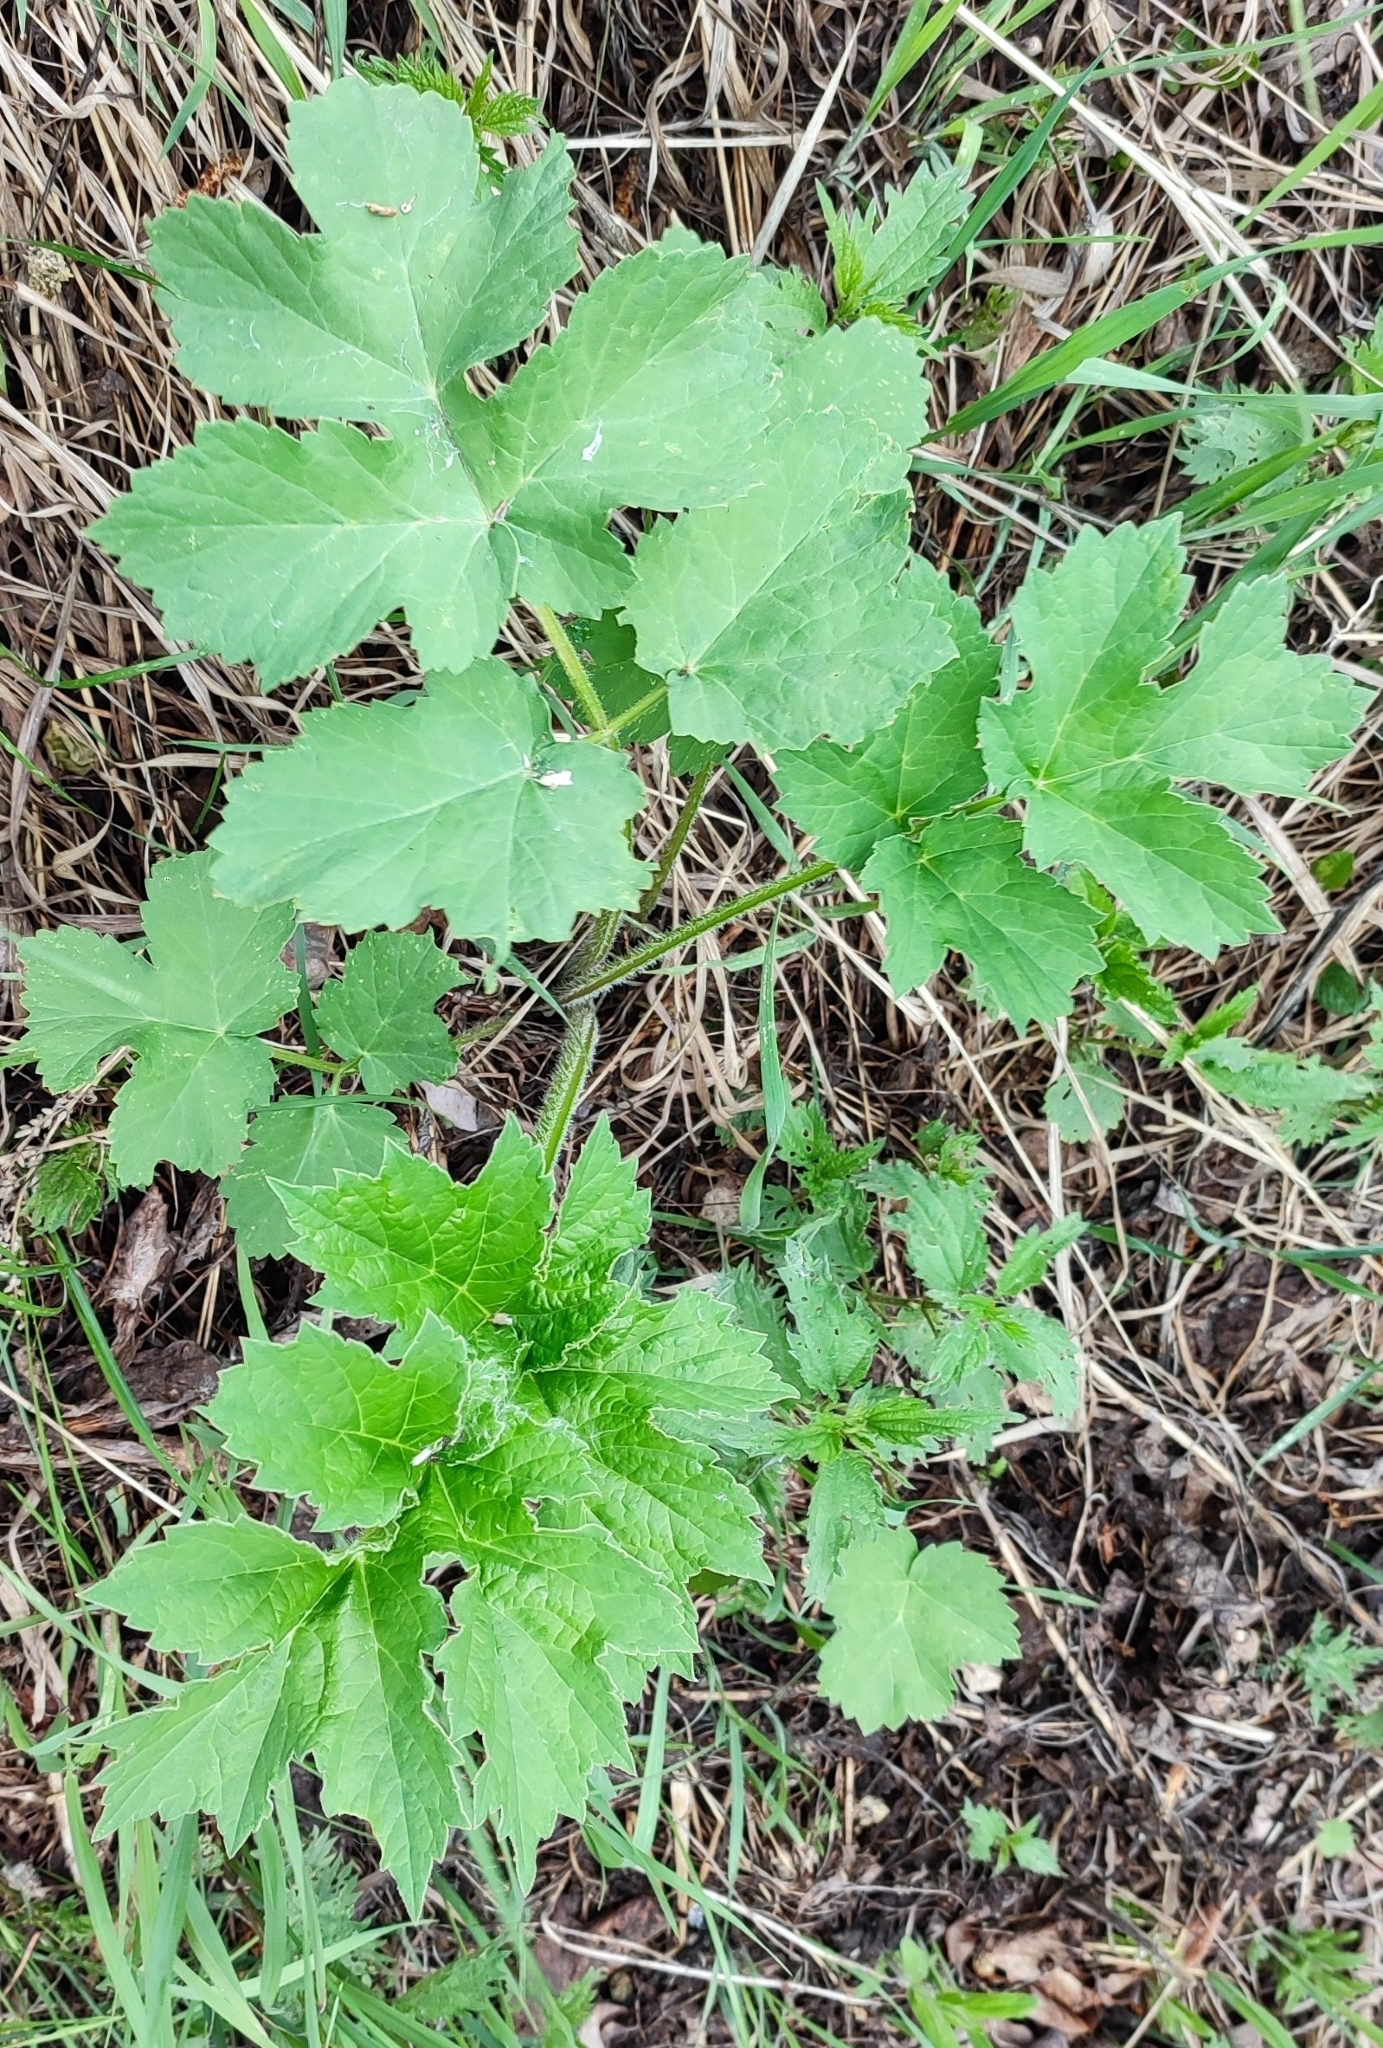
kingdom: Plantae
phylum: Tracheophyta
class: Magnoliopsida
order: Apiales
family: Apiaceae
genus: Heracleum
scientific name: Heracleum sphondylium
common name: Hogweed
